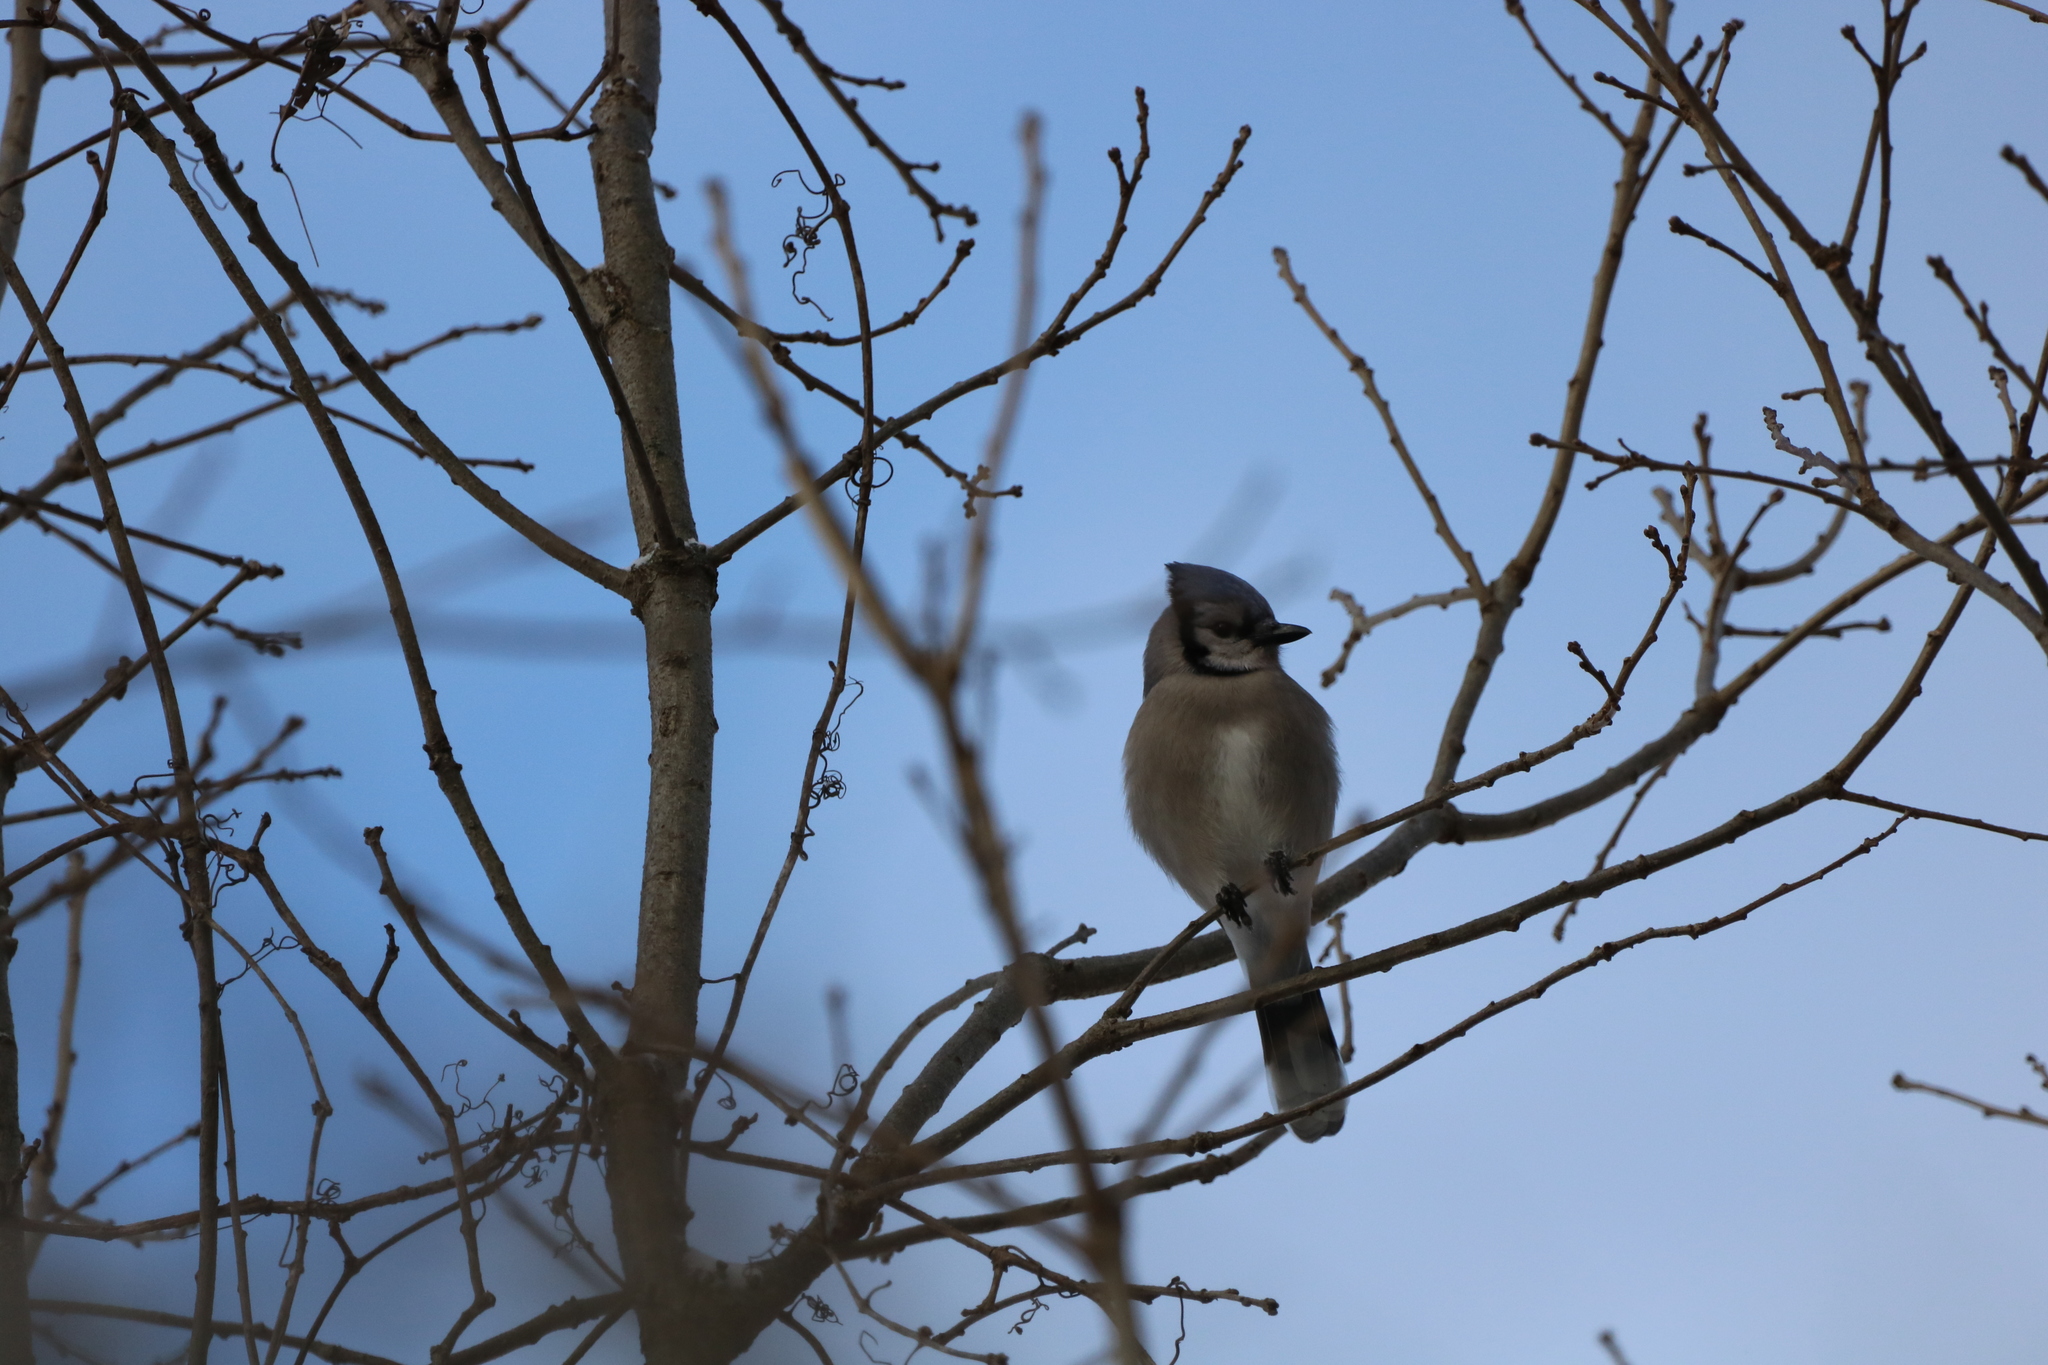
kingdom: Animalia
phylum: Chordata
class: Aves
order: Passeriformes
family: Corvidae
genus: Cyanocitta
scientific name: Cyanocitta cristata
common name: Blue jay
